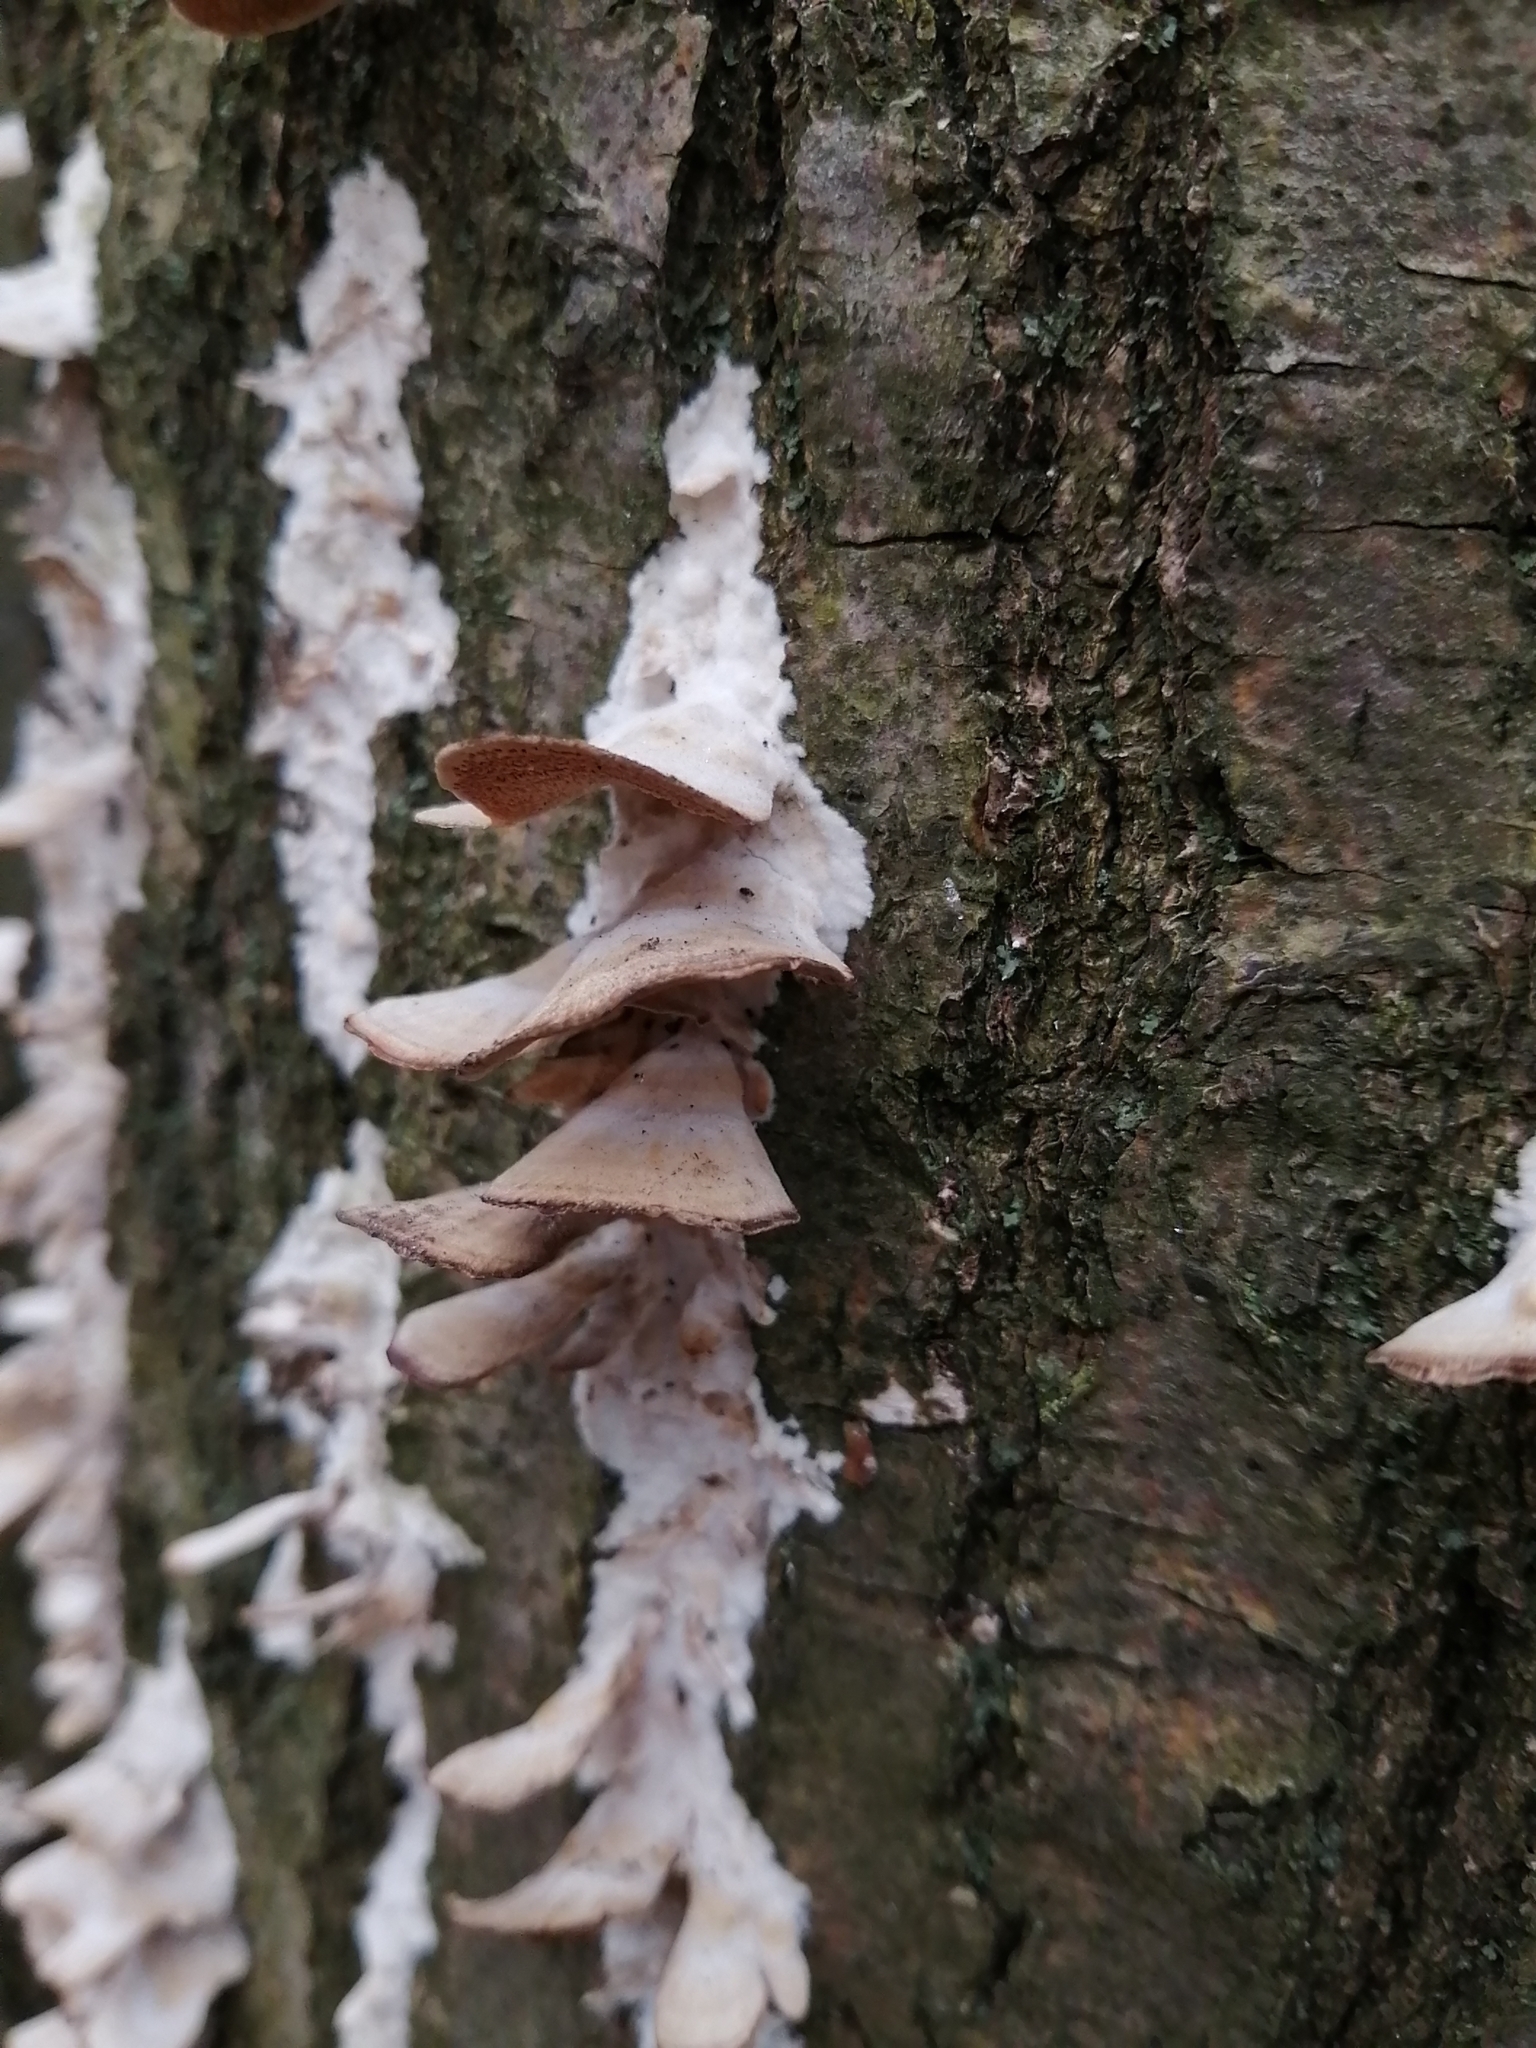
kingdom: Fungi
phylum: Basidiomycota
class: Agaricomycetes
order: Hymenochaetales
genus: Trichaptum
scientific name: Trichaptum biforme
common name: Violet-toothed polypore
